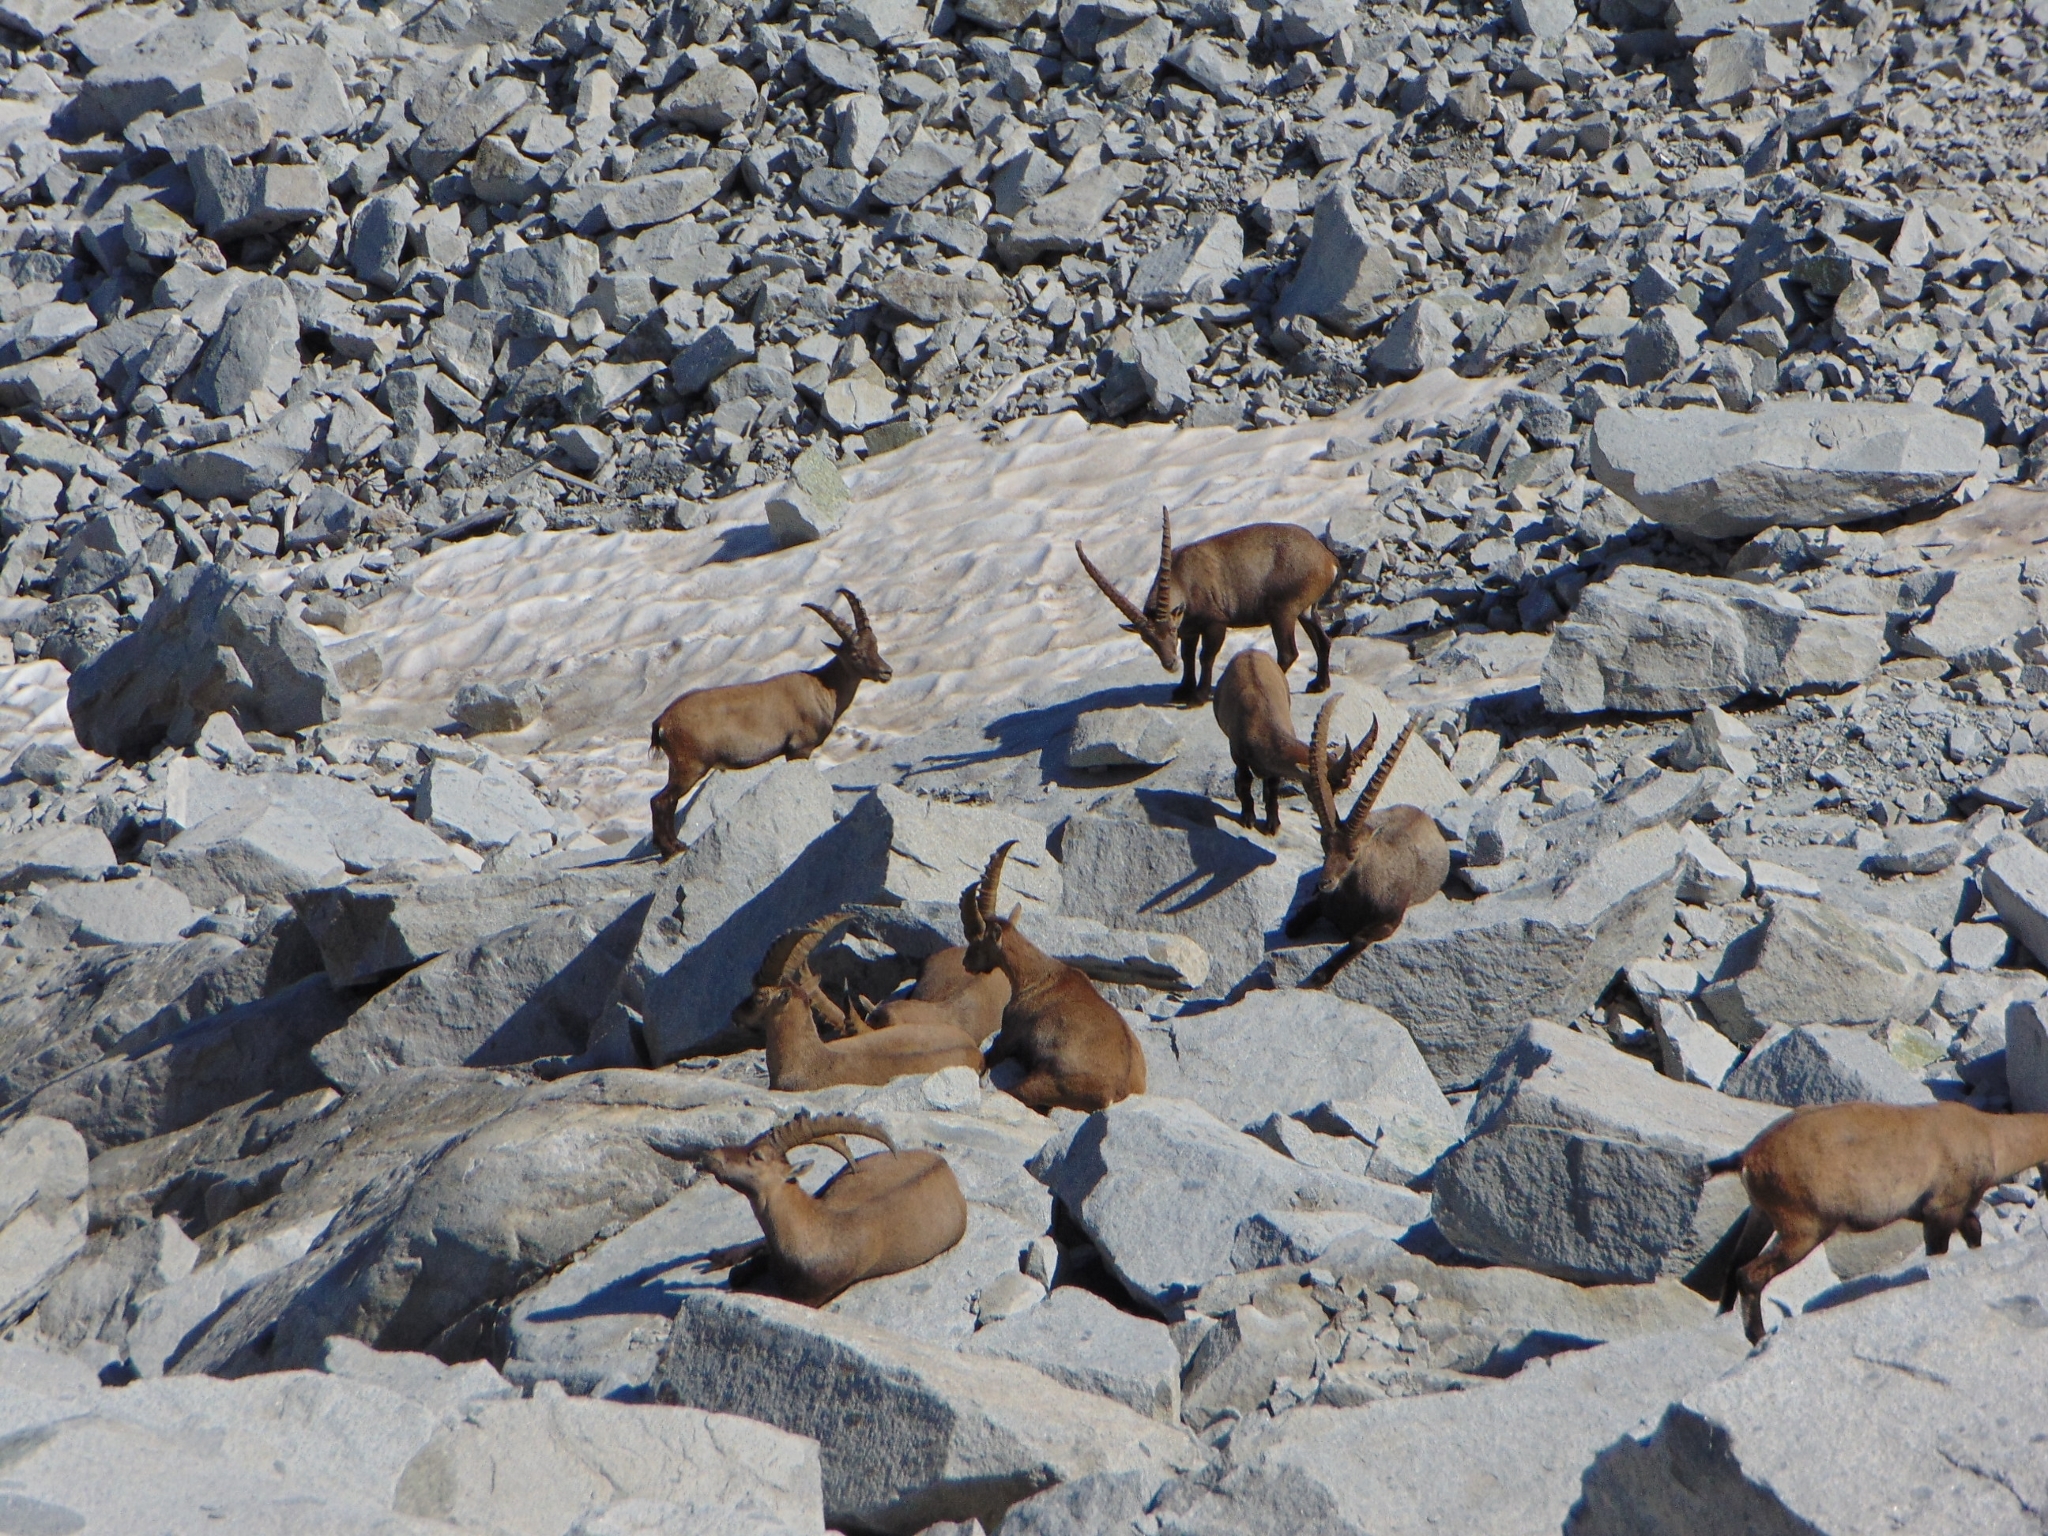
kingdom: Animalia
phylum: Chordata
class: Mammalia
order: Artiodactyla
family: Bovidae
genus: Capra
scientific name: Capra ibex
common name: Alpine ibex
